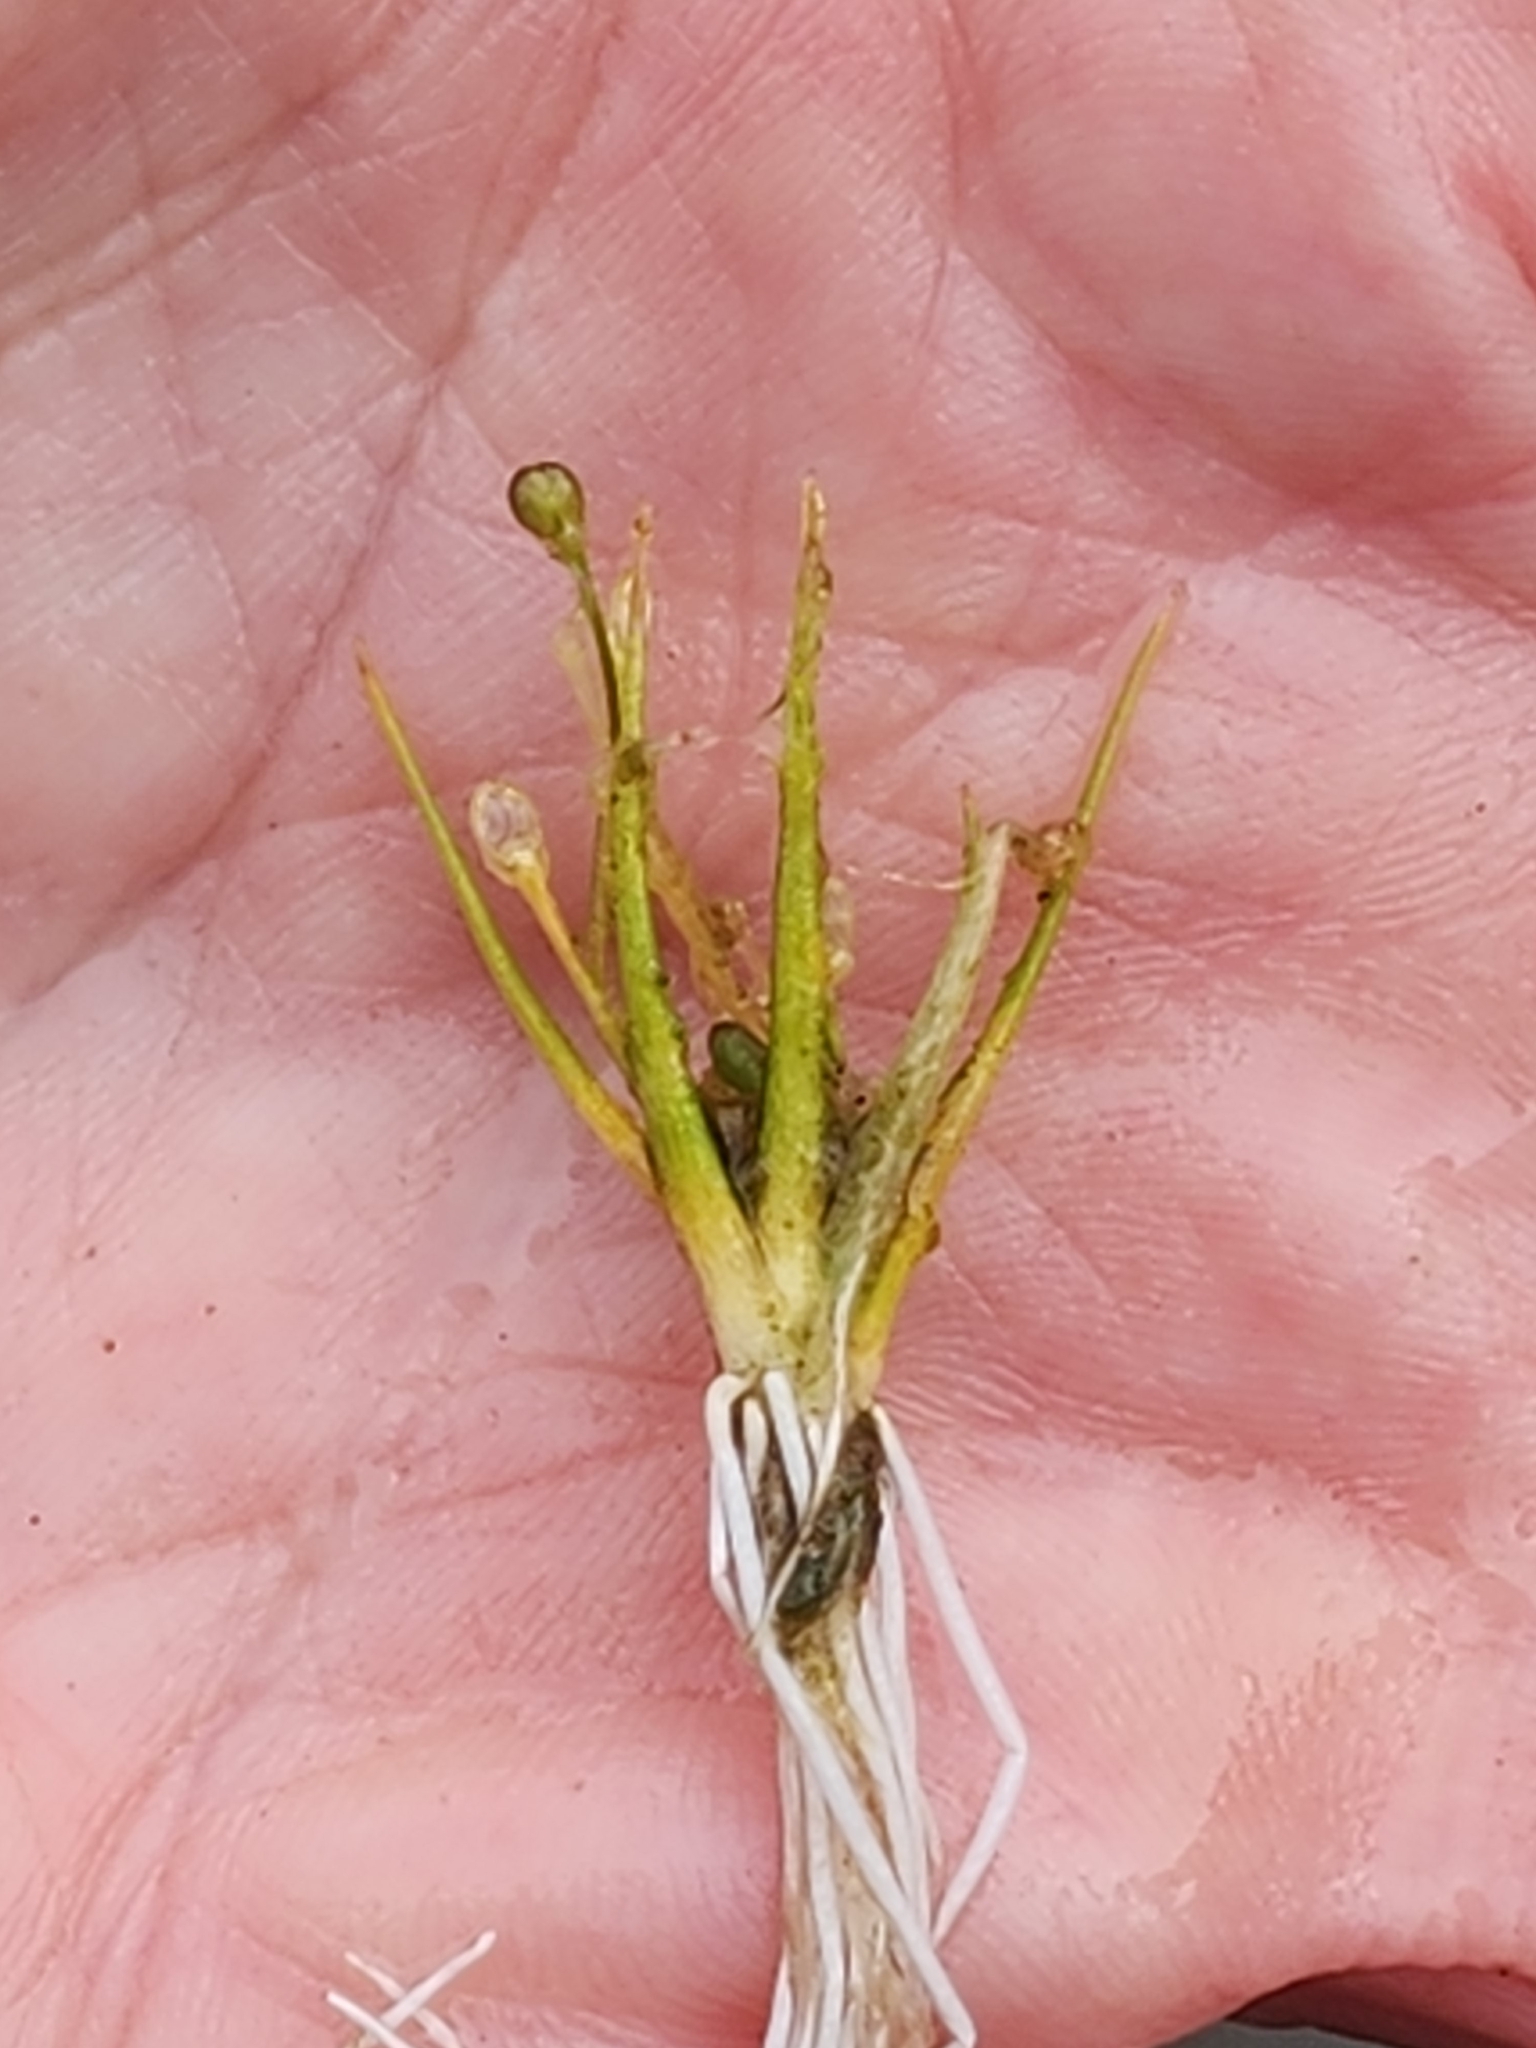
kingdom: Plantae
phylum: Tracheophyta
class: Magnoliopsida
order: Brassicales
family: Brassicaceae
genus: Subularia
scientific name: Subularia aquatica
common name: Awlwort
